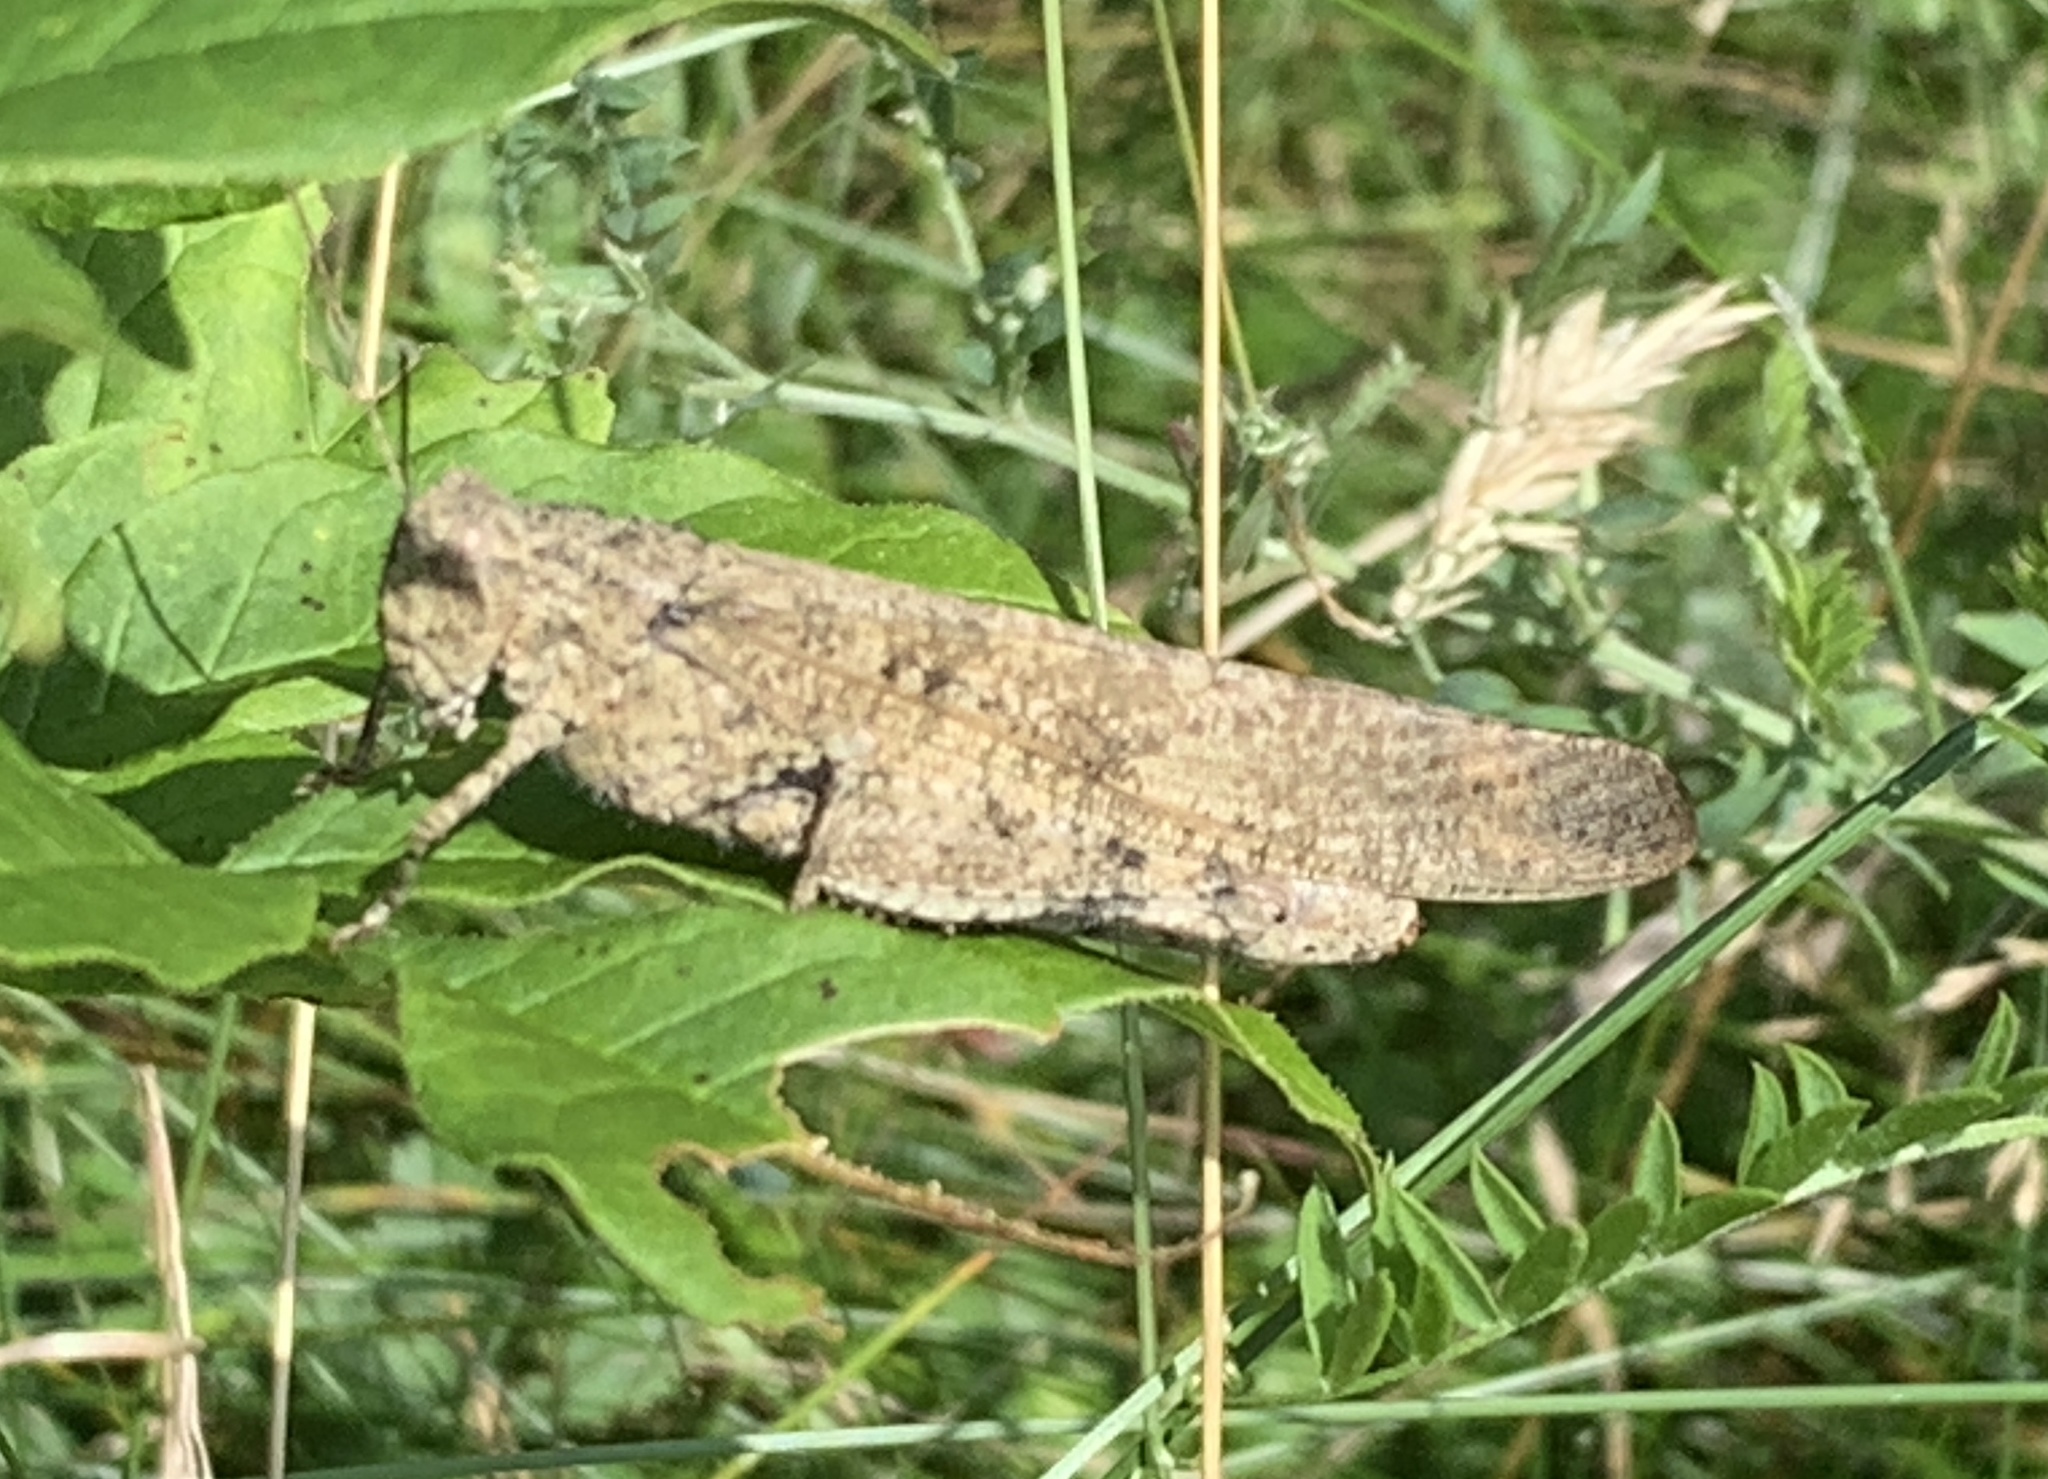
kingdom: Animalia
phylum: Arthropoda
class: Insecta
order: Orthoptera
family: Acrididae
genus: Dissosteira
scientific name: Dissosteira carolina
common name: Carolina grasshopper
